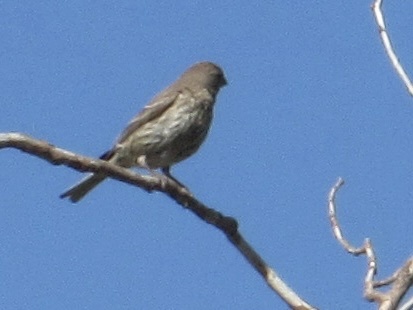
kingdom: Animalia
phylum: Chordata
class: Aves
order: Passeriformes
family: Fringillidae
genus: Haemorhous
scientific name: Haemorhous mexicanus
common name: House finch
